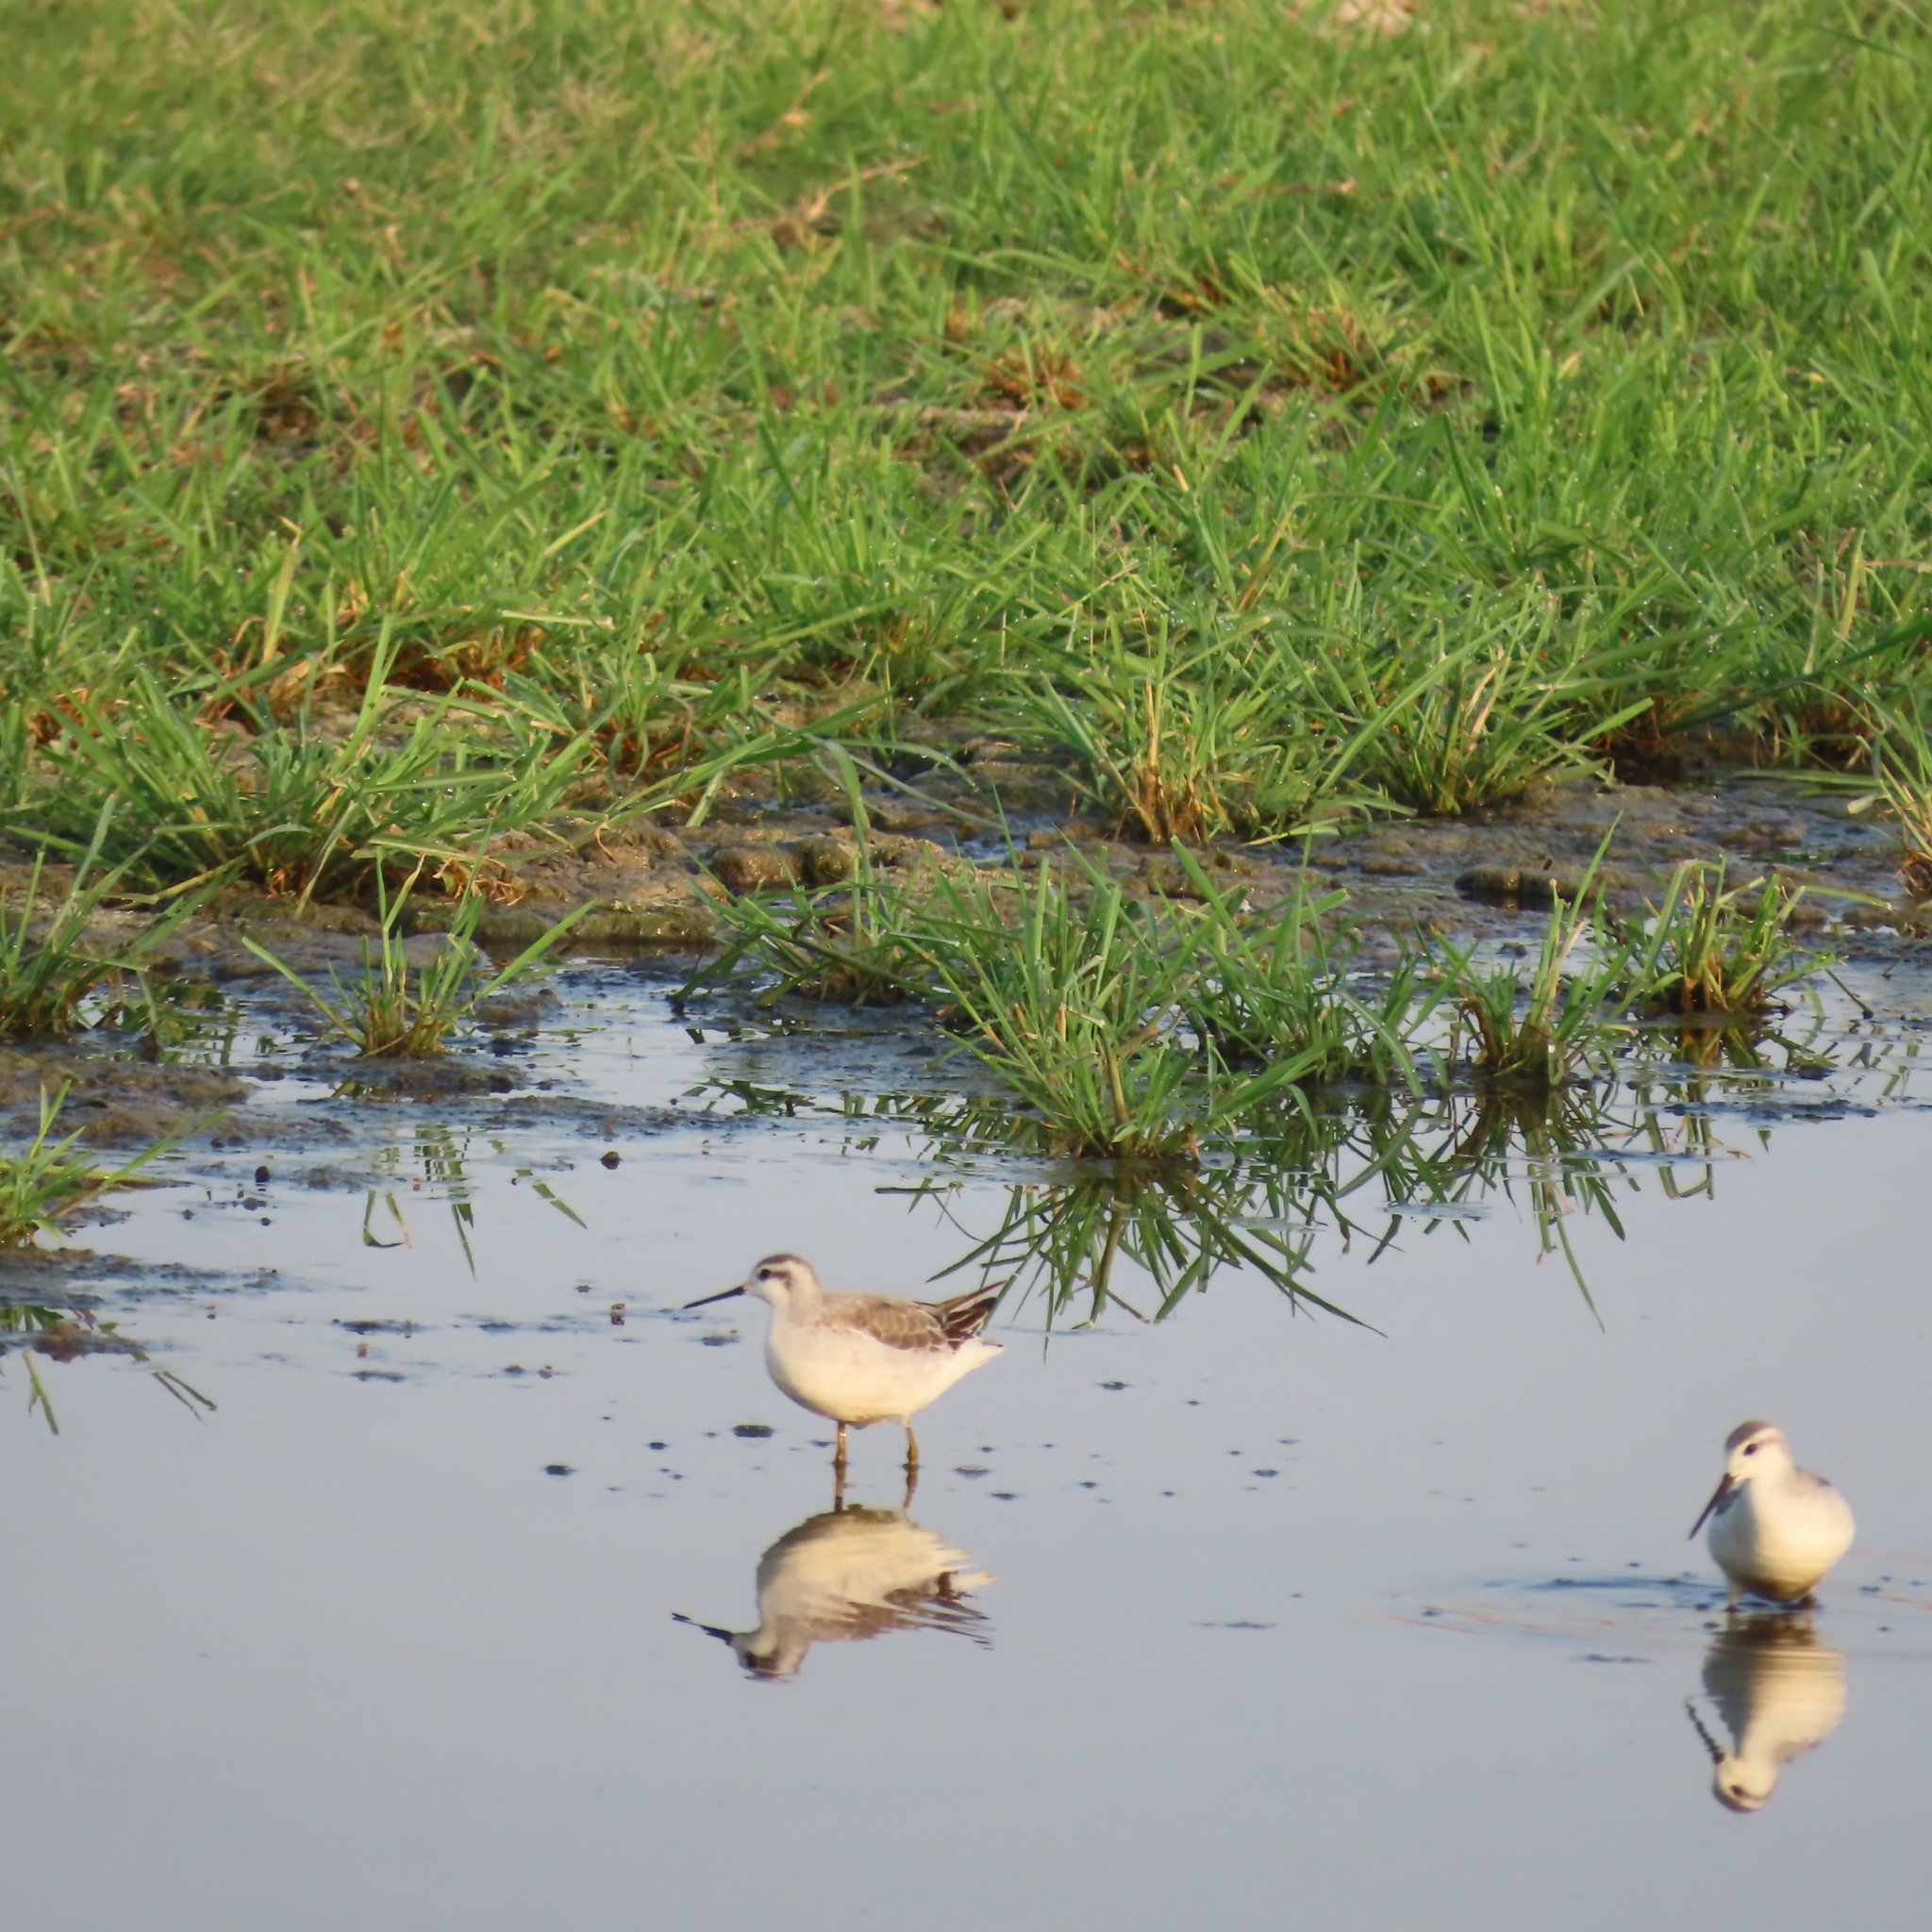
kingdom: Animalia
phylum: Chordata
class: Aves
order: Charadriiformes
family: Scolopacidae
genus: Phalaropus
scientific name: Phalaropus tricolor
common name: Wilson's phalarope
